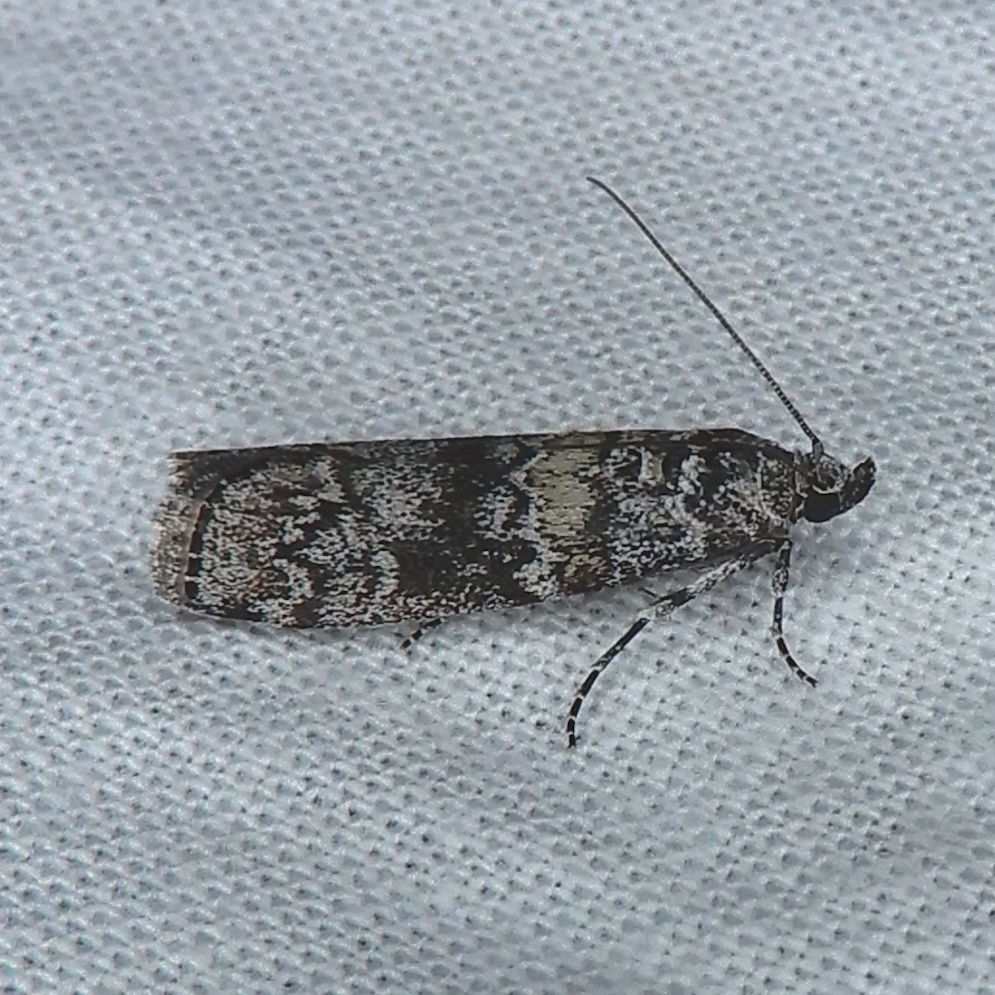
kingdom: Animalia
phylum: Arthropoda
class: Insecta
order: Lepidoptera
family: Pyralidae
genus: Dioryctria
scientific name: Dioryctria abietivorella
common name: Evergreen coneworm moth
